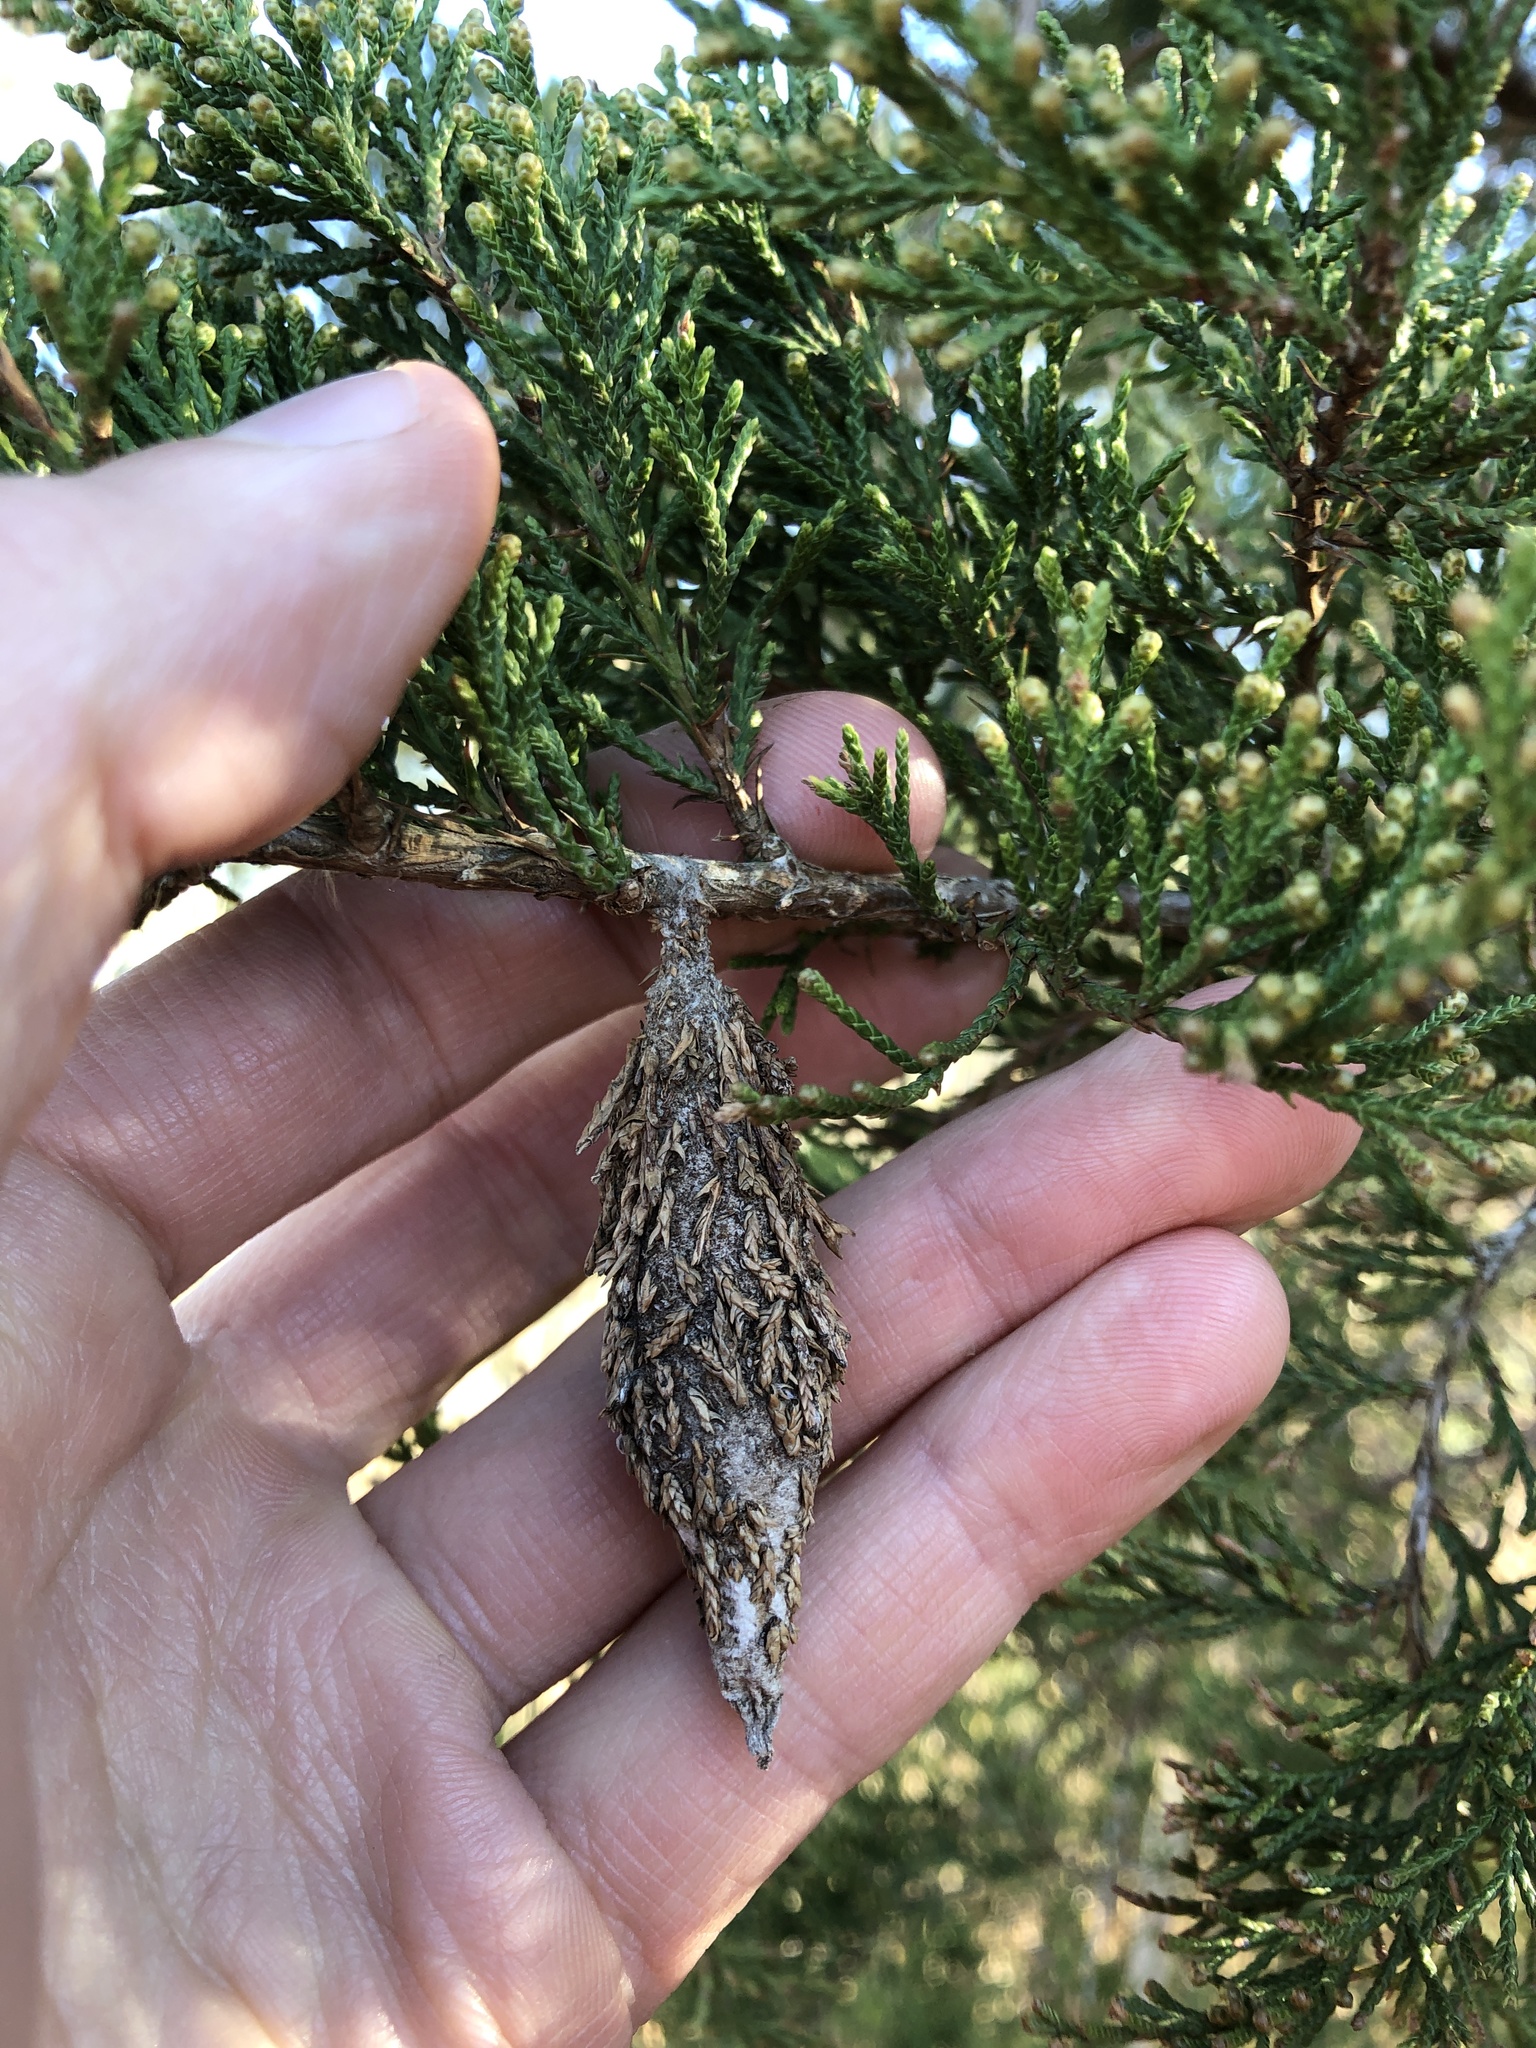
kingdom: Animalia
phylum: Arthropoda
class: Insecta
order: Lepidoptera
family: Psychidae
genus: Thyridopteryx
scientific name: Thyridopteryx ephemeraeformis
